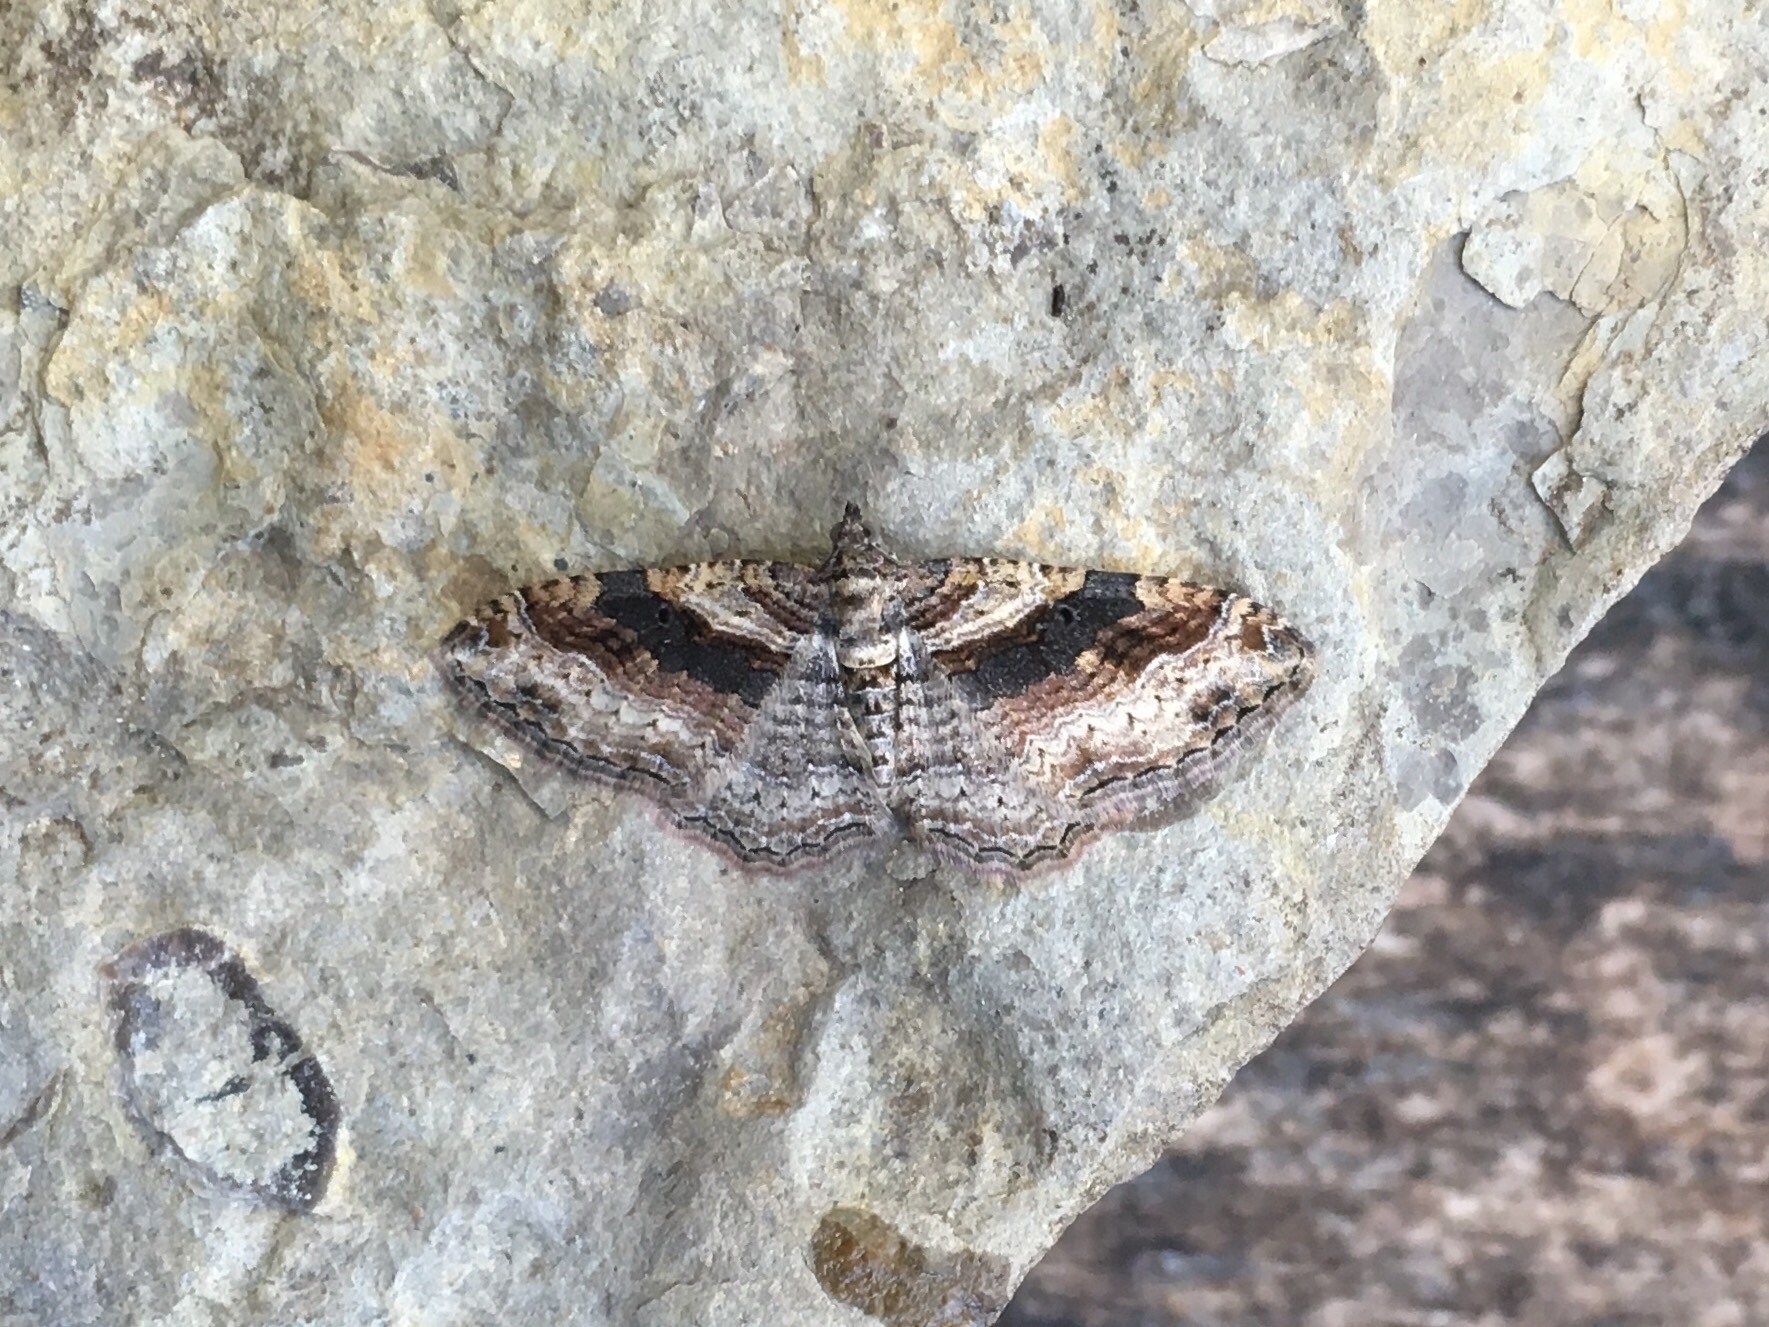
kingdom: Animalia
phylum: Arthropoda
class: Insecta
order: Lepidoptera
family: Geometridae
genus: Costaconvexa
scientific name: Costaconvexa centrostrigaria
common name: Bent-line carpet
